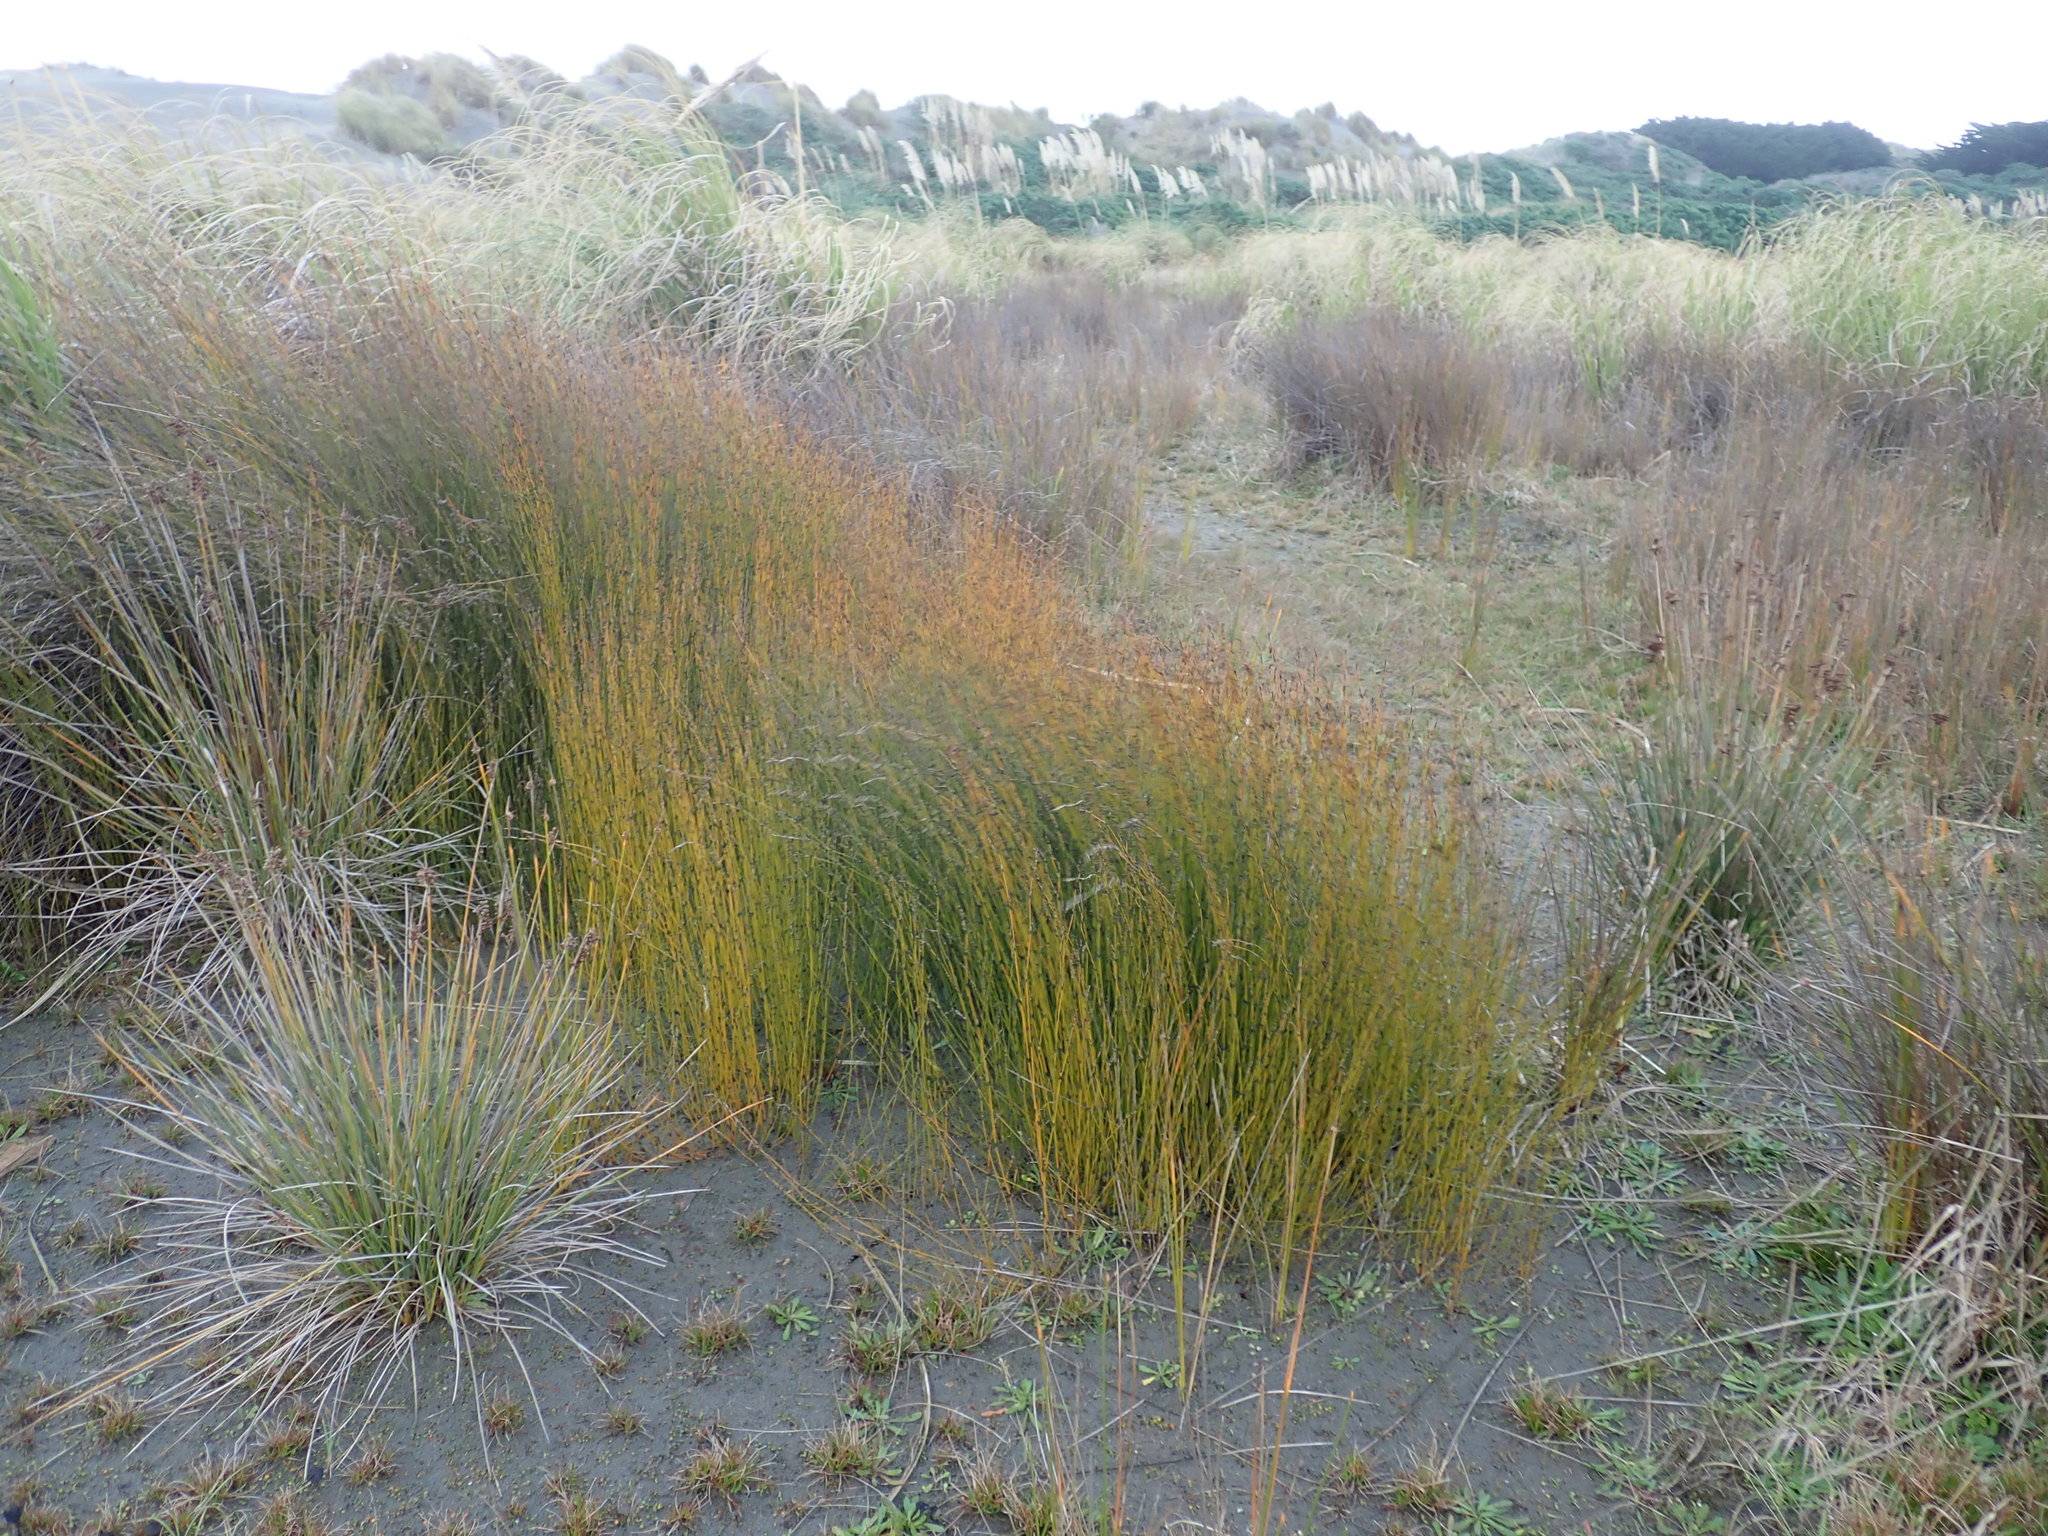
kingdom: Plantae
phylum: Tracheophyta
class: Liliopsida
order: Poales
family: Restionaceae
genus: Apodasmia
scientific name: Apodasmia similis
